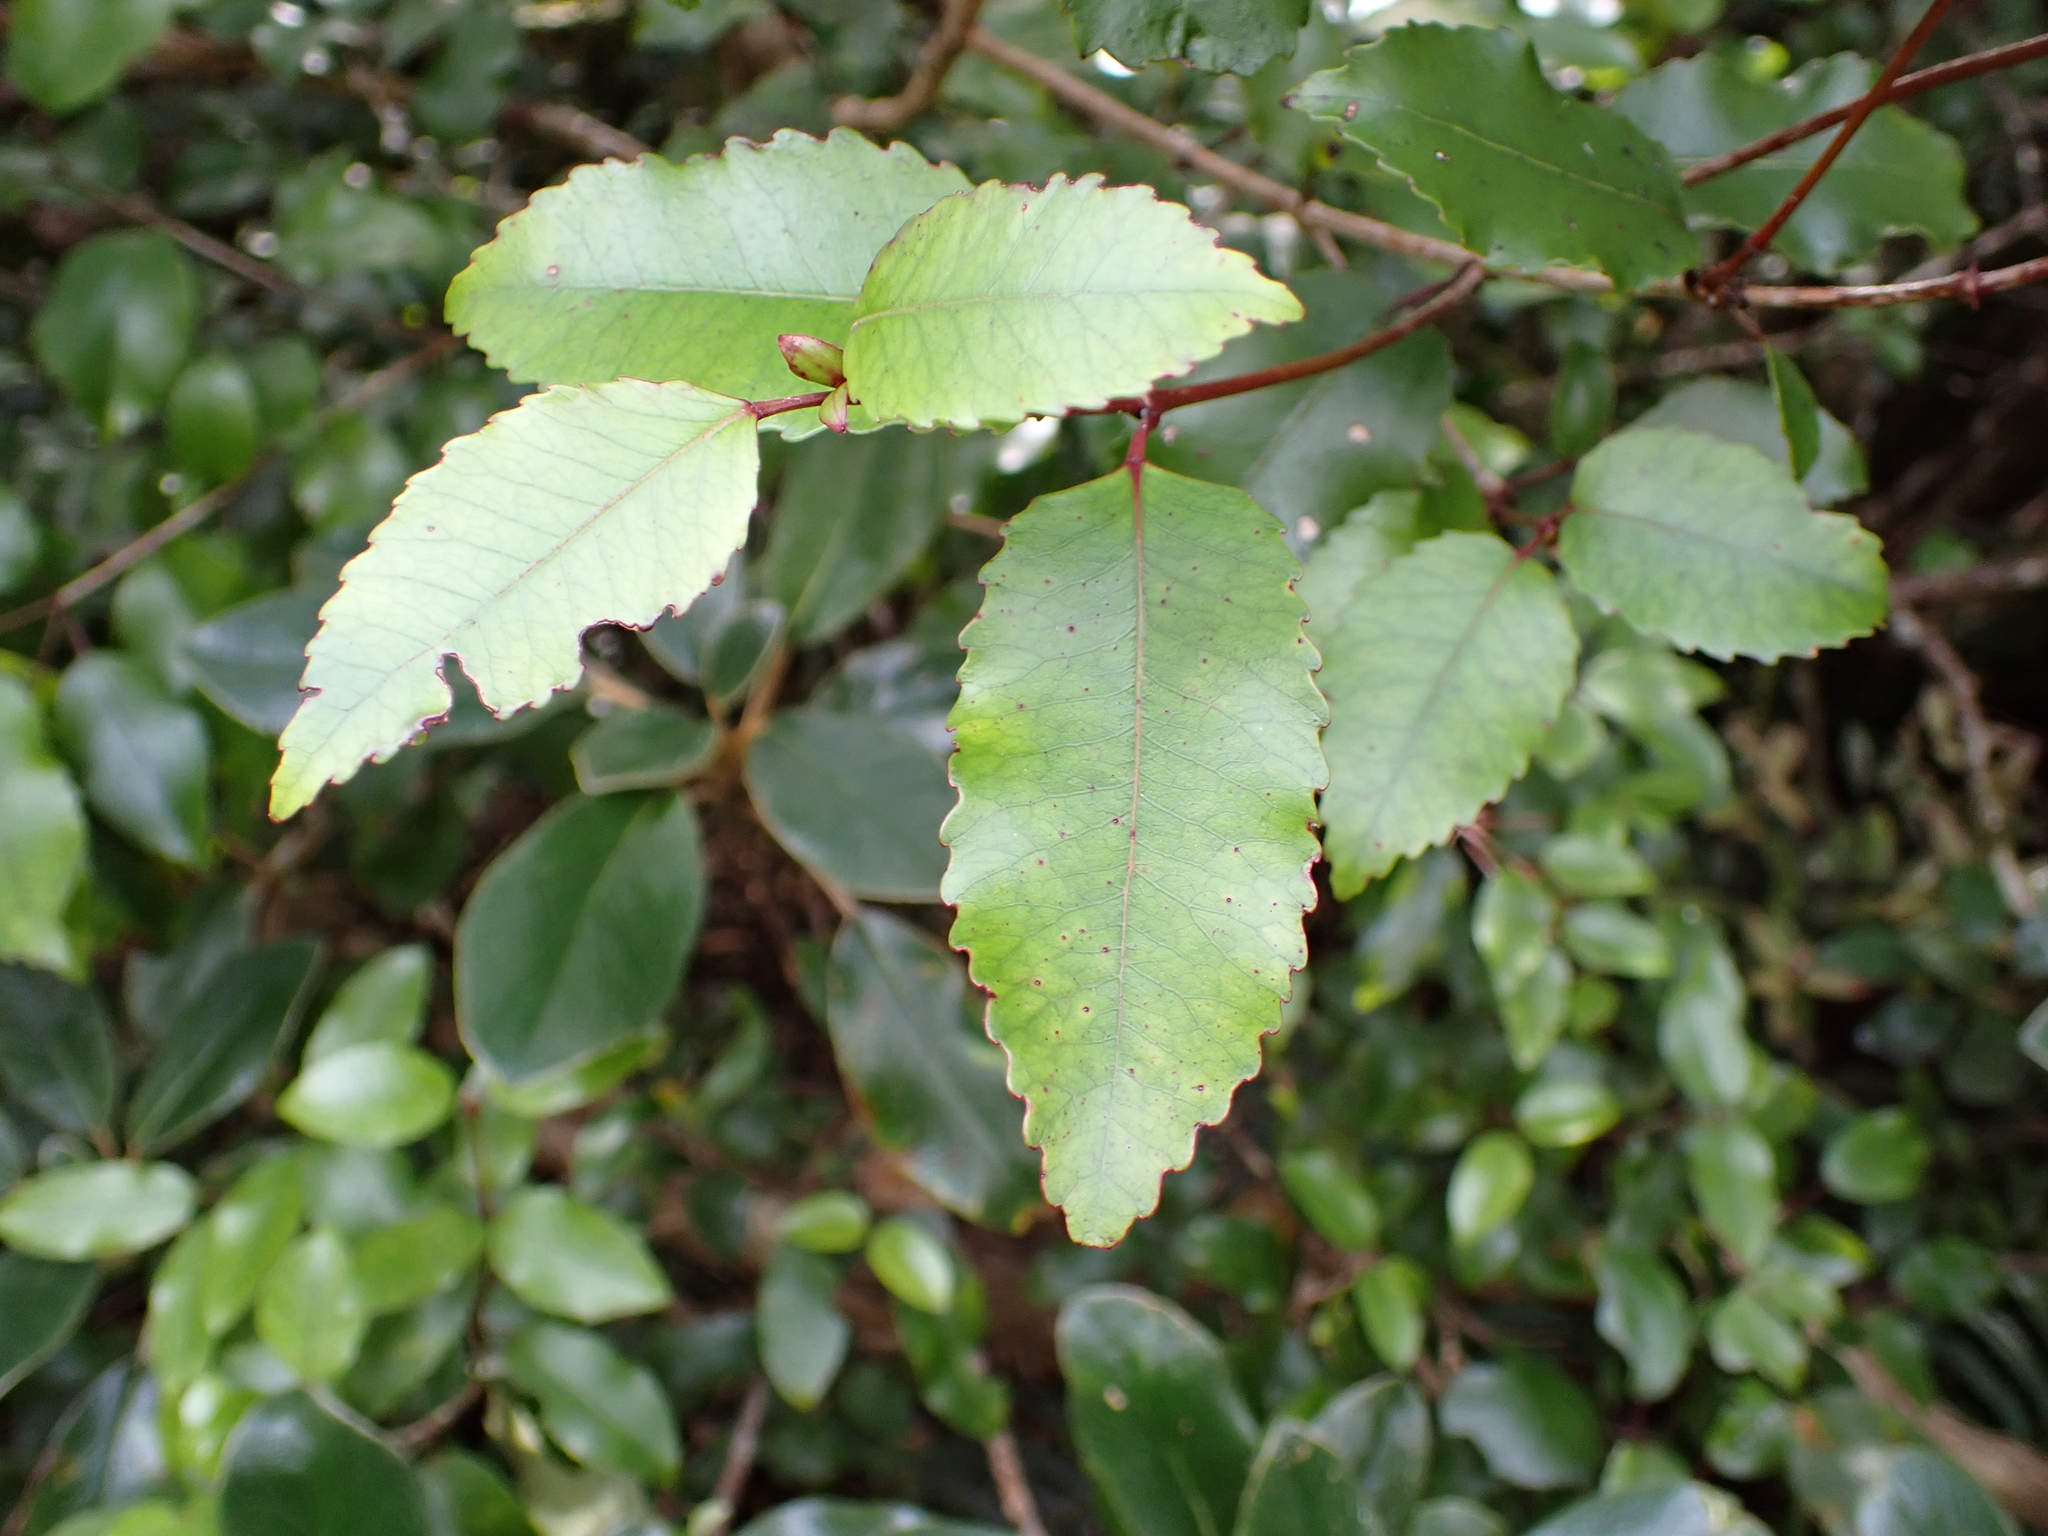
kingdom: Plantae
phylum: Tracheophyta
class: Magnoliopsida
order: Oxalidales
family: Cunoniaceae
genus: Pterophylla
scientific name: Pterophylla racemosa
